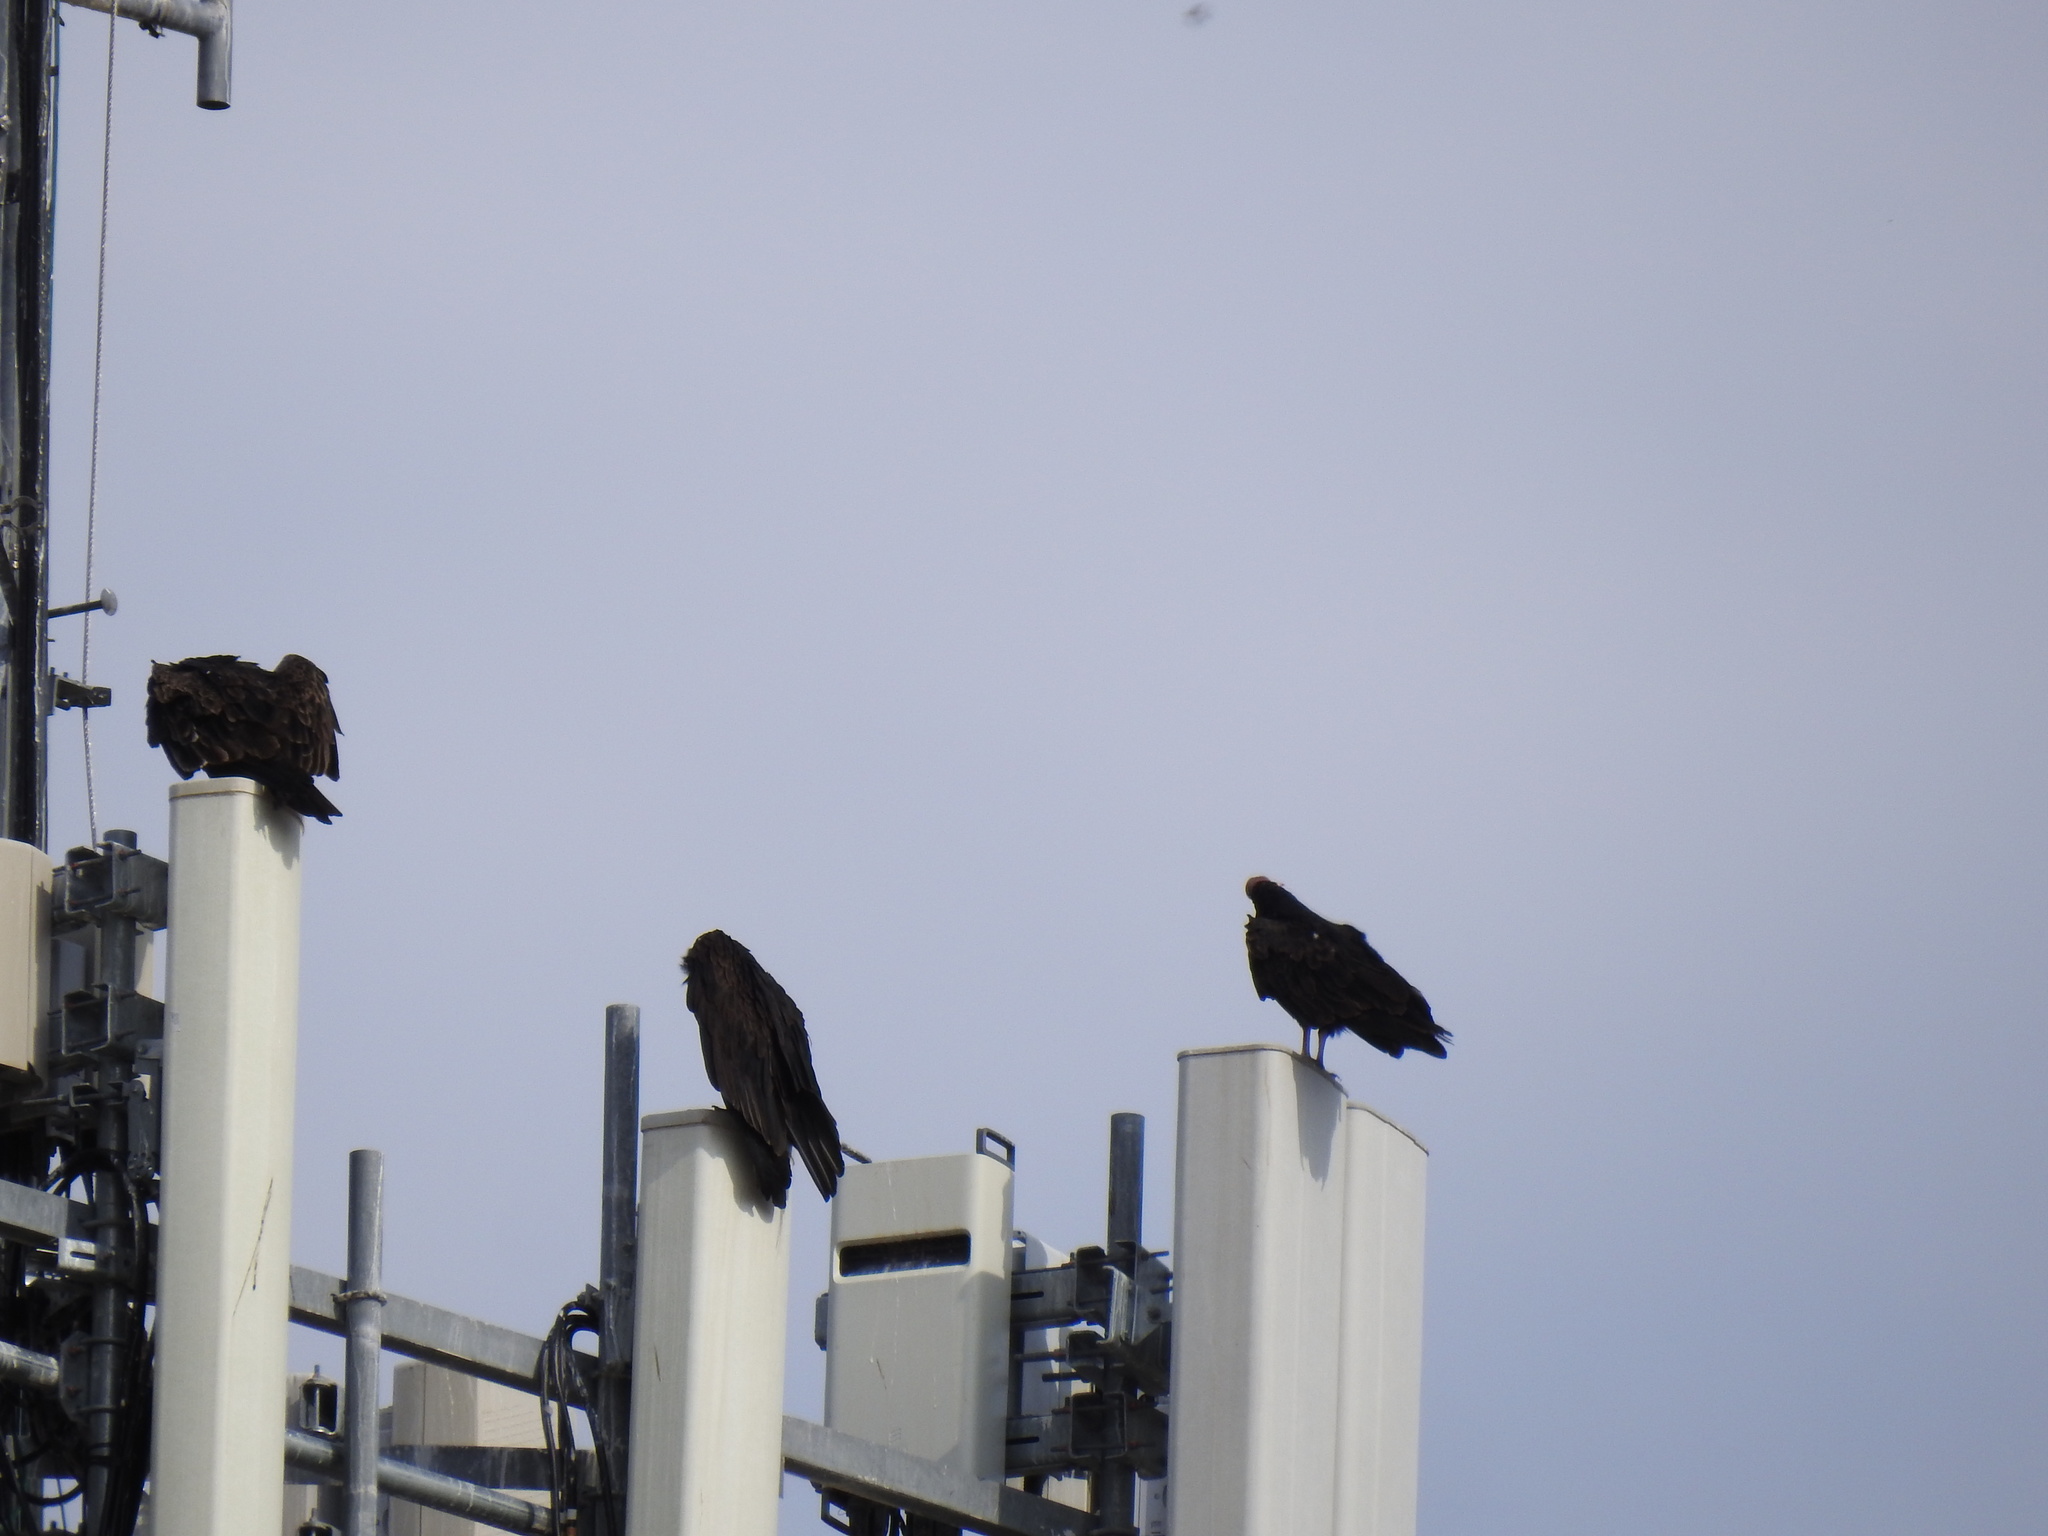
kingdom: Animalia
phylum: Chordata
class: Aves
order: Accipitriformes
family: Cathartidae
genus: Cathartes
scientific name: Cathartes aura
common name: Turkey vulture
